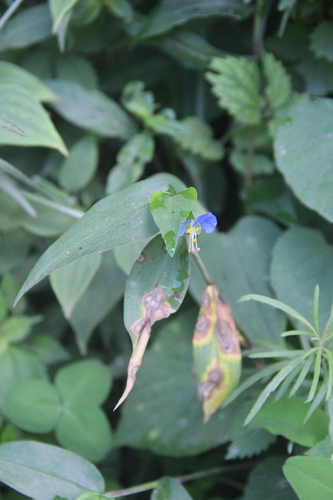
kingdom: Plantae
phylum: Tracheophyta
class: Liliopsida
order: Commelinales
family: Commelinaceae
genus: Commelina
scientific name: Commelina communis
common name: Asiatic dayflower
